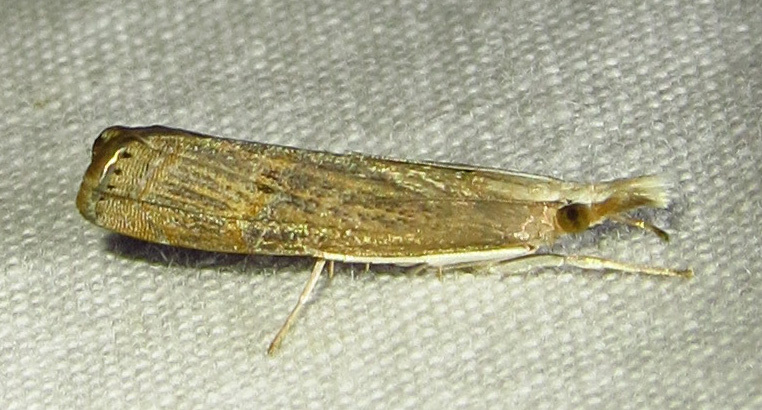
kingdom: Animalia
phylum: Arthropoda
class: Insecta
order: Lepidoptera
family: Crambidae
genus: Parapediasia
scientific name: Parapediasia teterellus
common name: Bluegrass webworm moth
